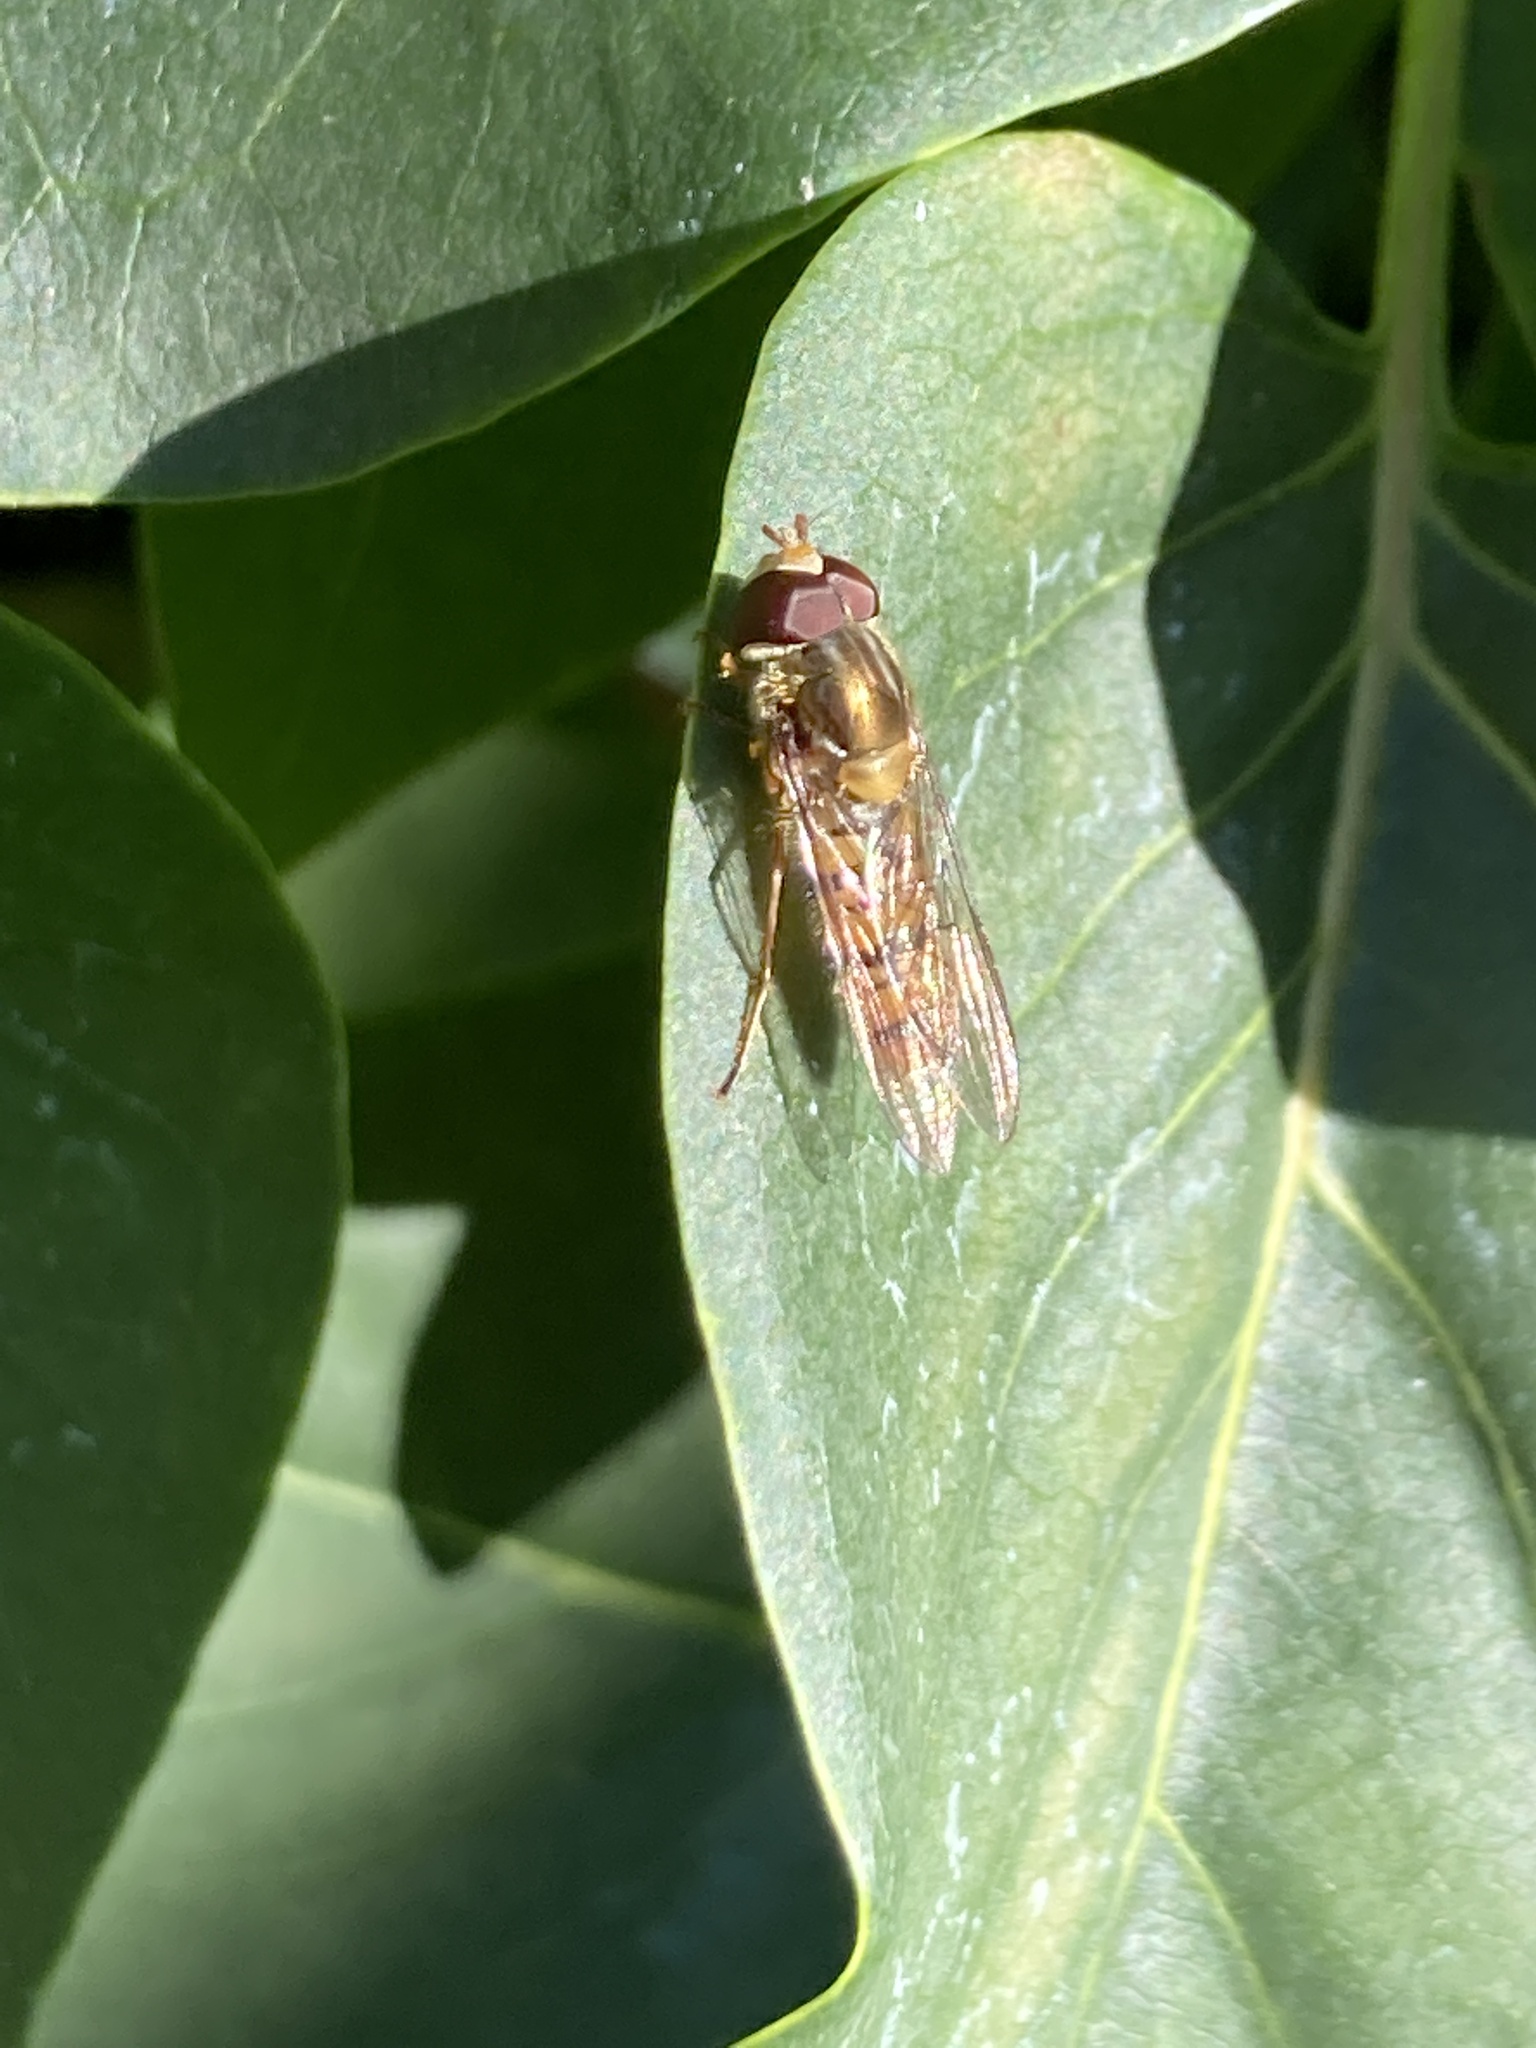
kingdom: Animalia
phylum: Arthropoda
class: Insecta
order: Diptera
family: Syrphidae
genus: Episyrphus
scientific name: Episyrphus balteatus
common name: Marmalade hoverfly
